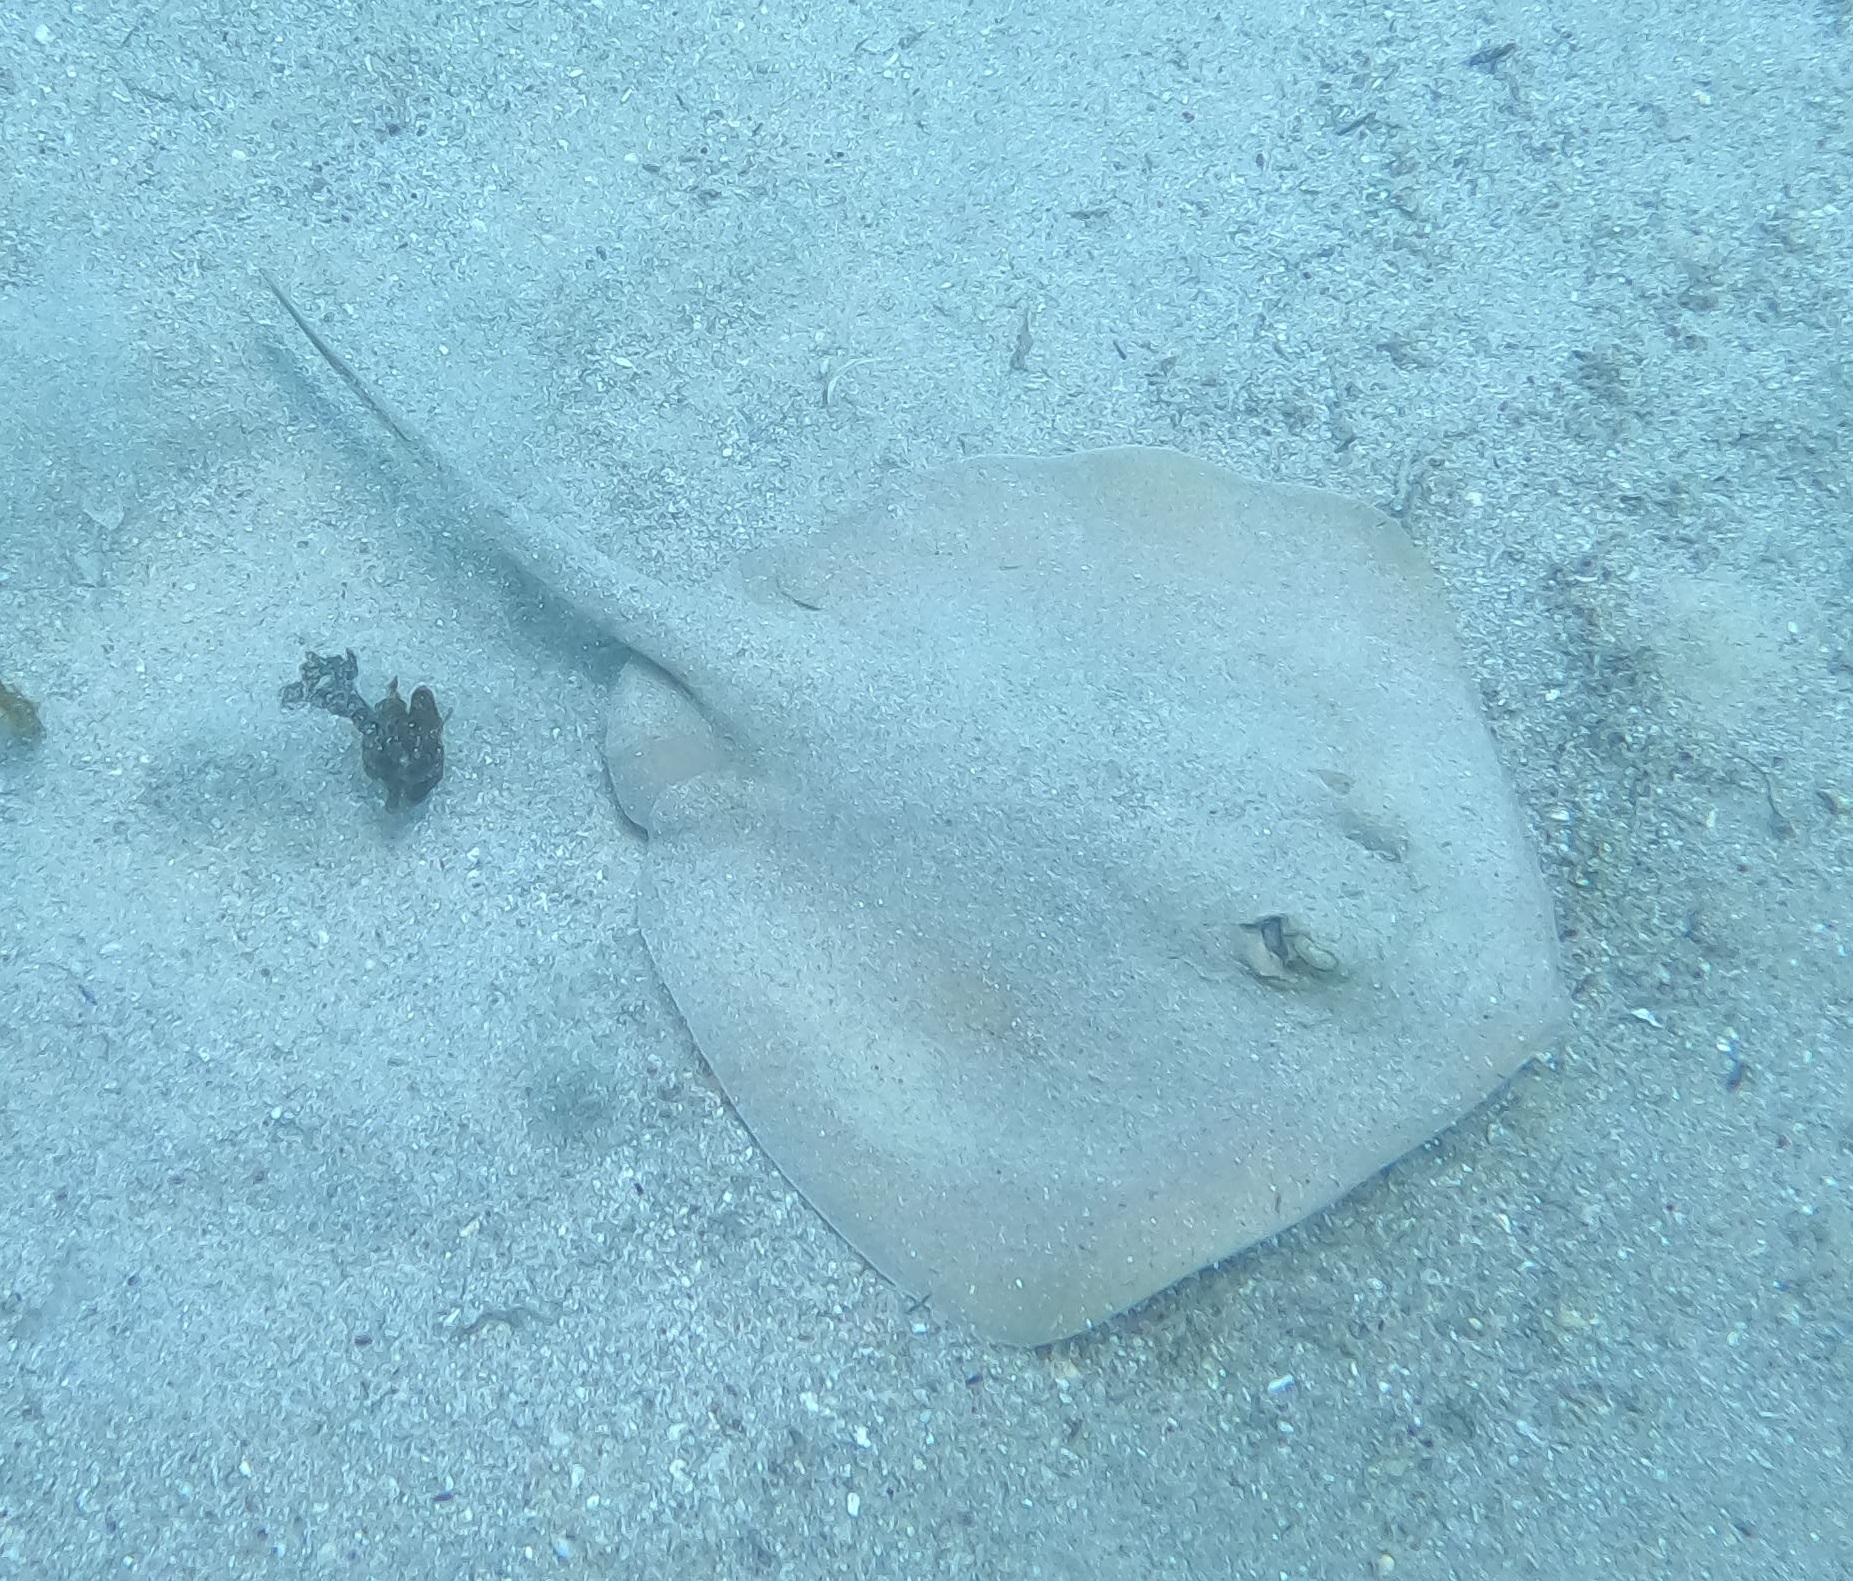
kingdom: Animalia
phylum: Chordata
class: Elasmobranchii
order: Myliobatiformes
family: Urolophidae
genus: Trygonoptera
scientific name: Trygonoptera testacea
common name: Common stingaree
